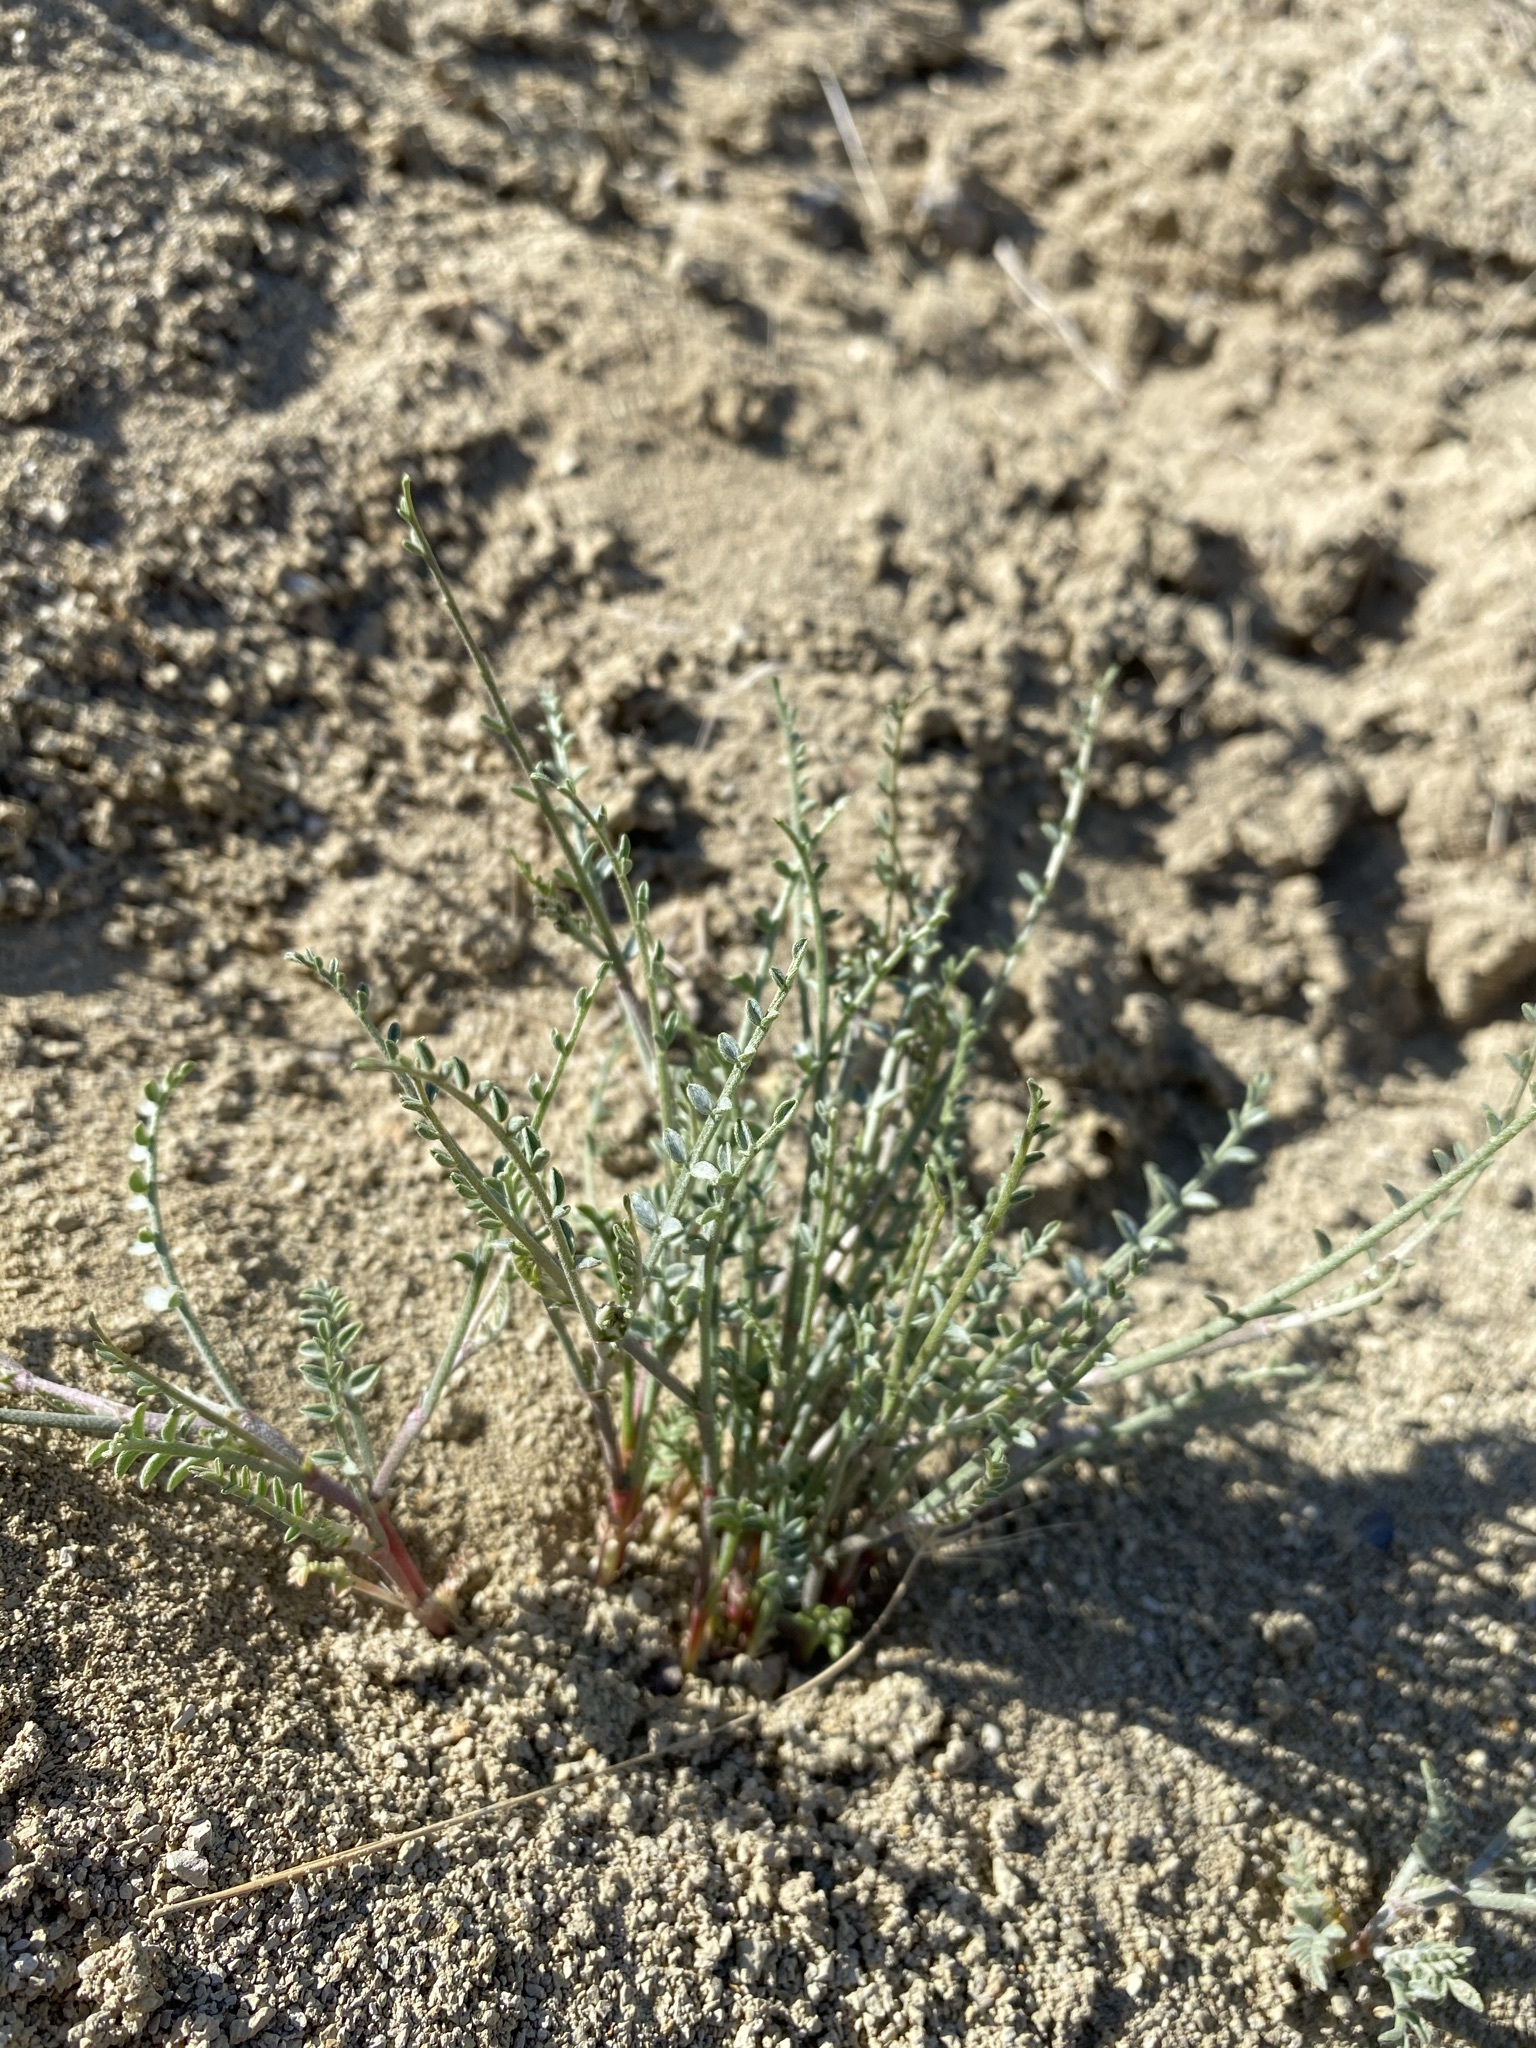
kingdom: Plantae
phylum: Tracheophyta
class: Magnoliopsida
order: Fabales
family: Fabaceae
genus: Astragalus
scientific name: Astragalus sterilis
